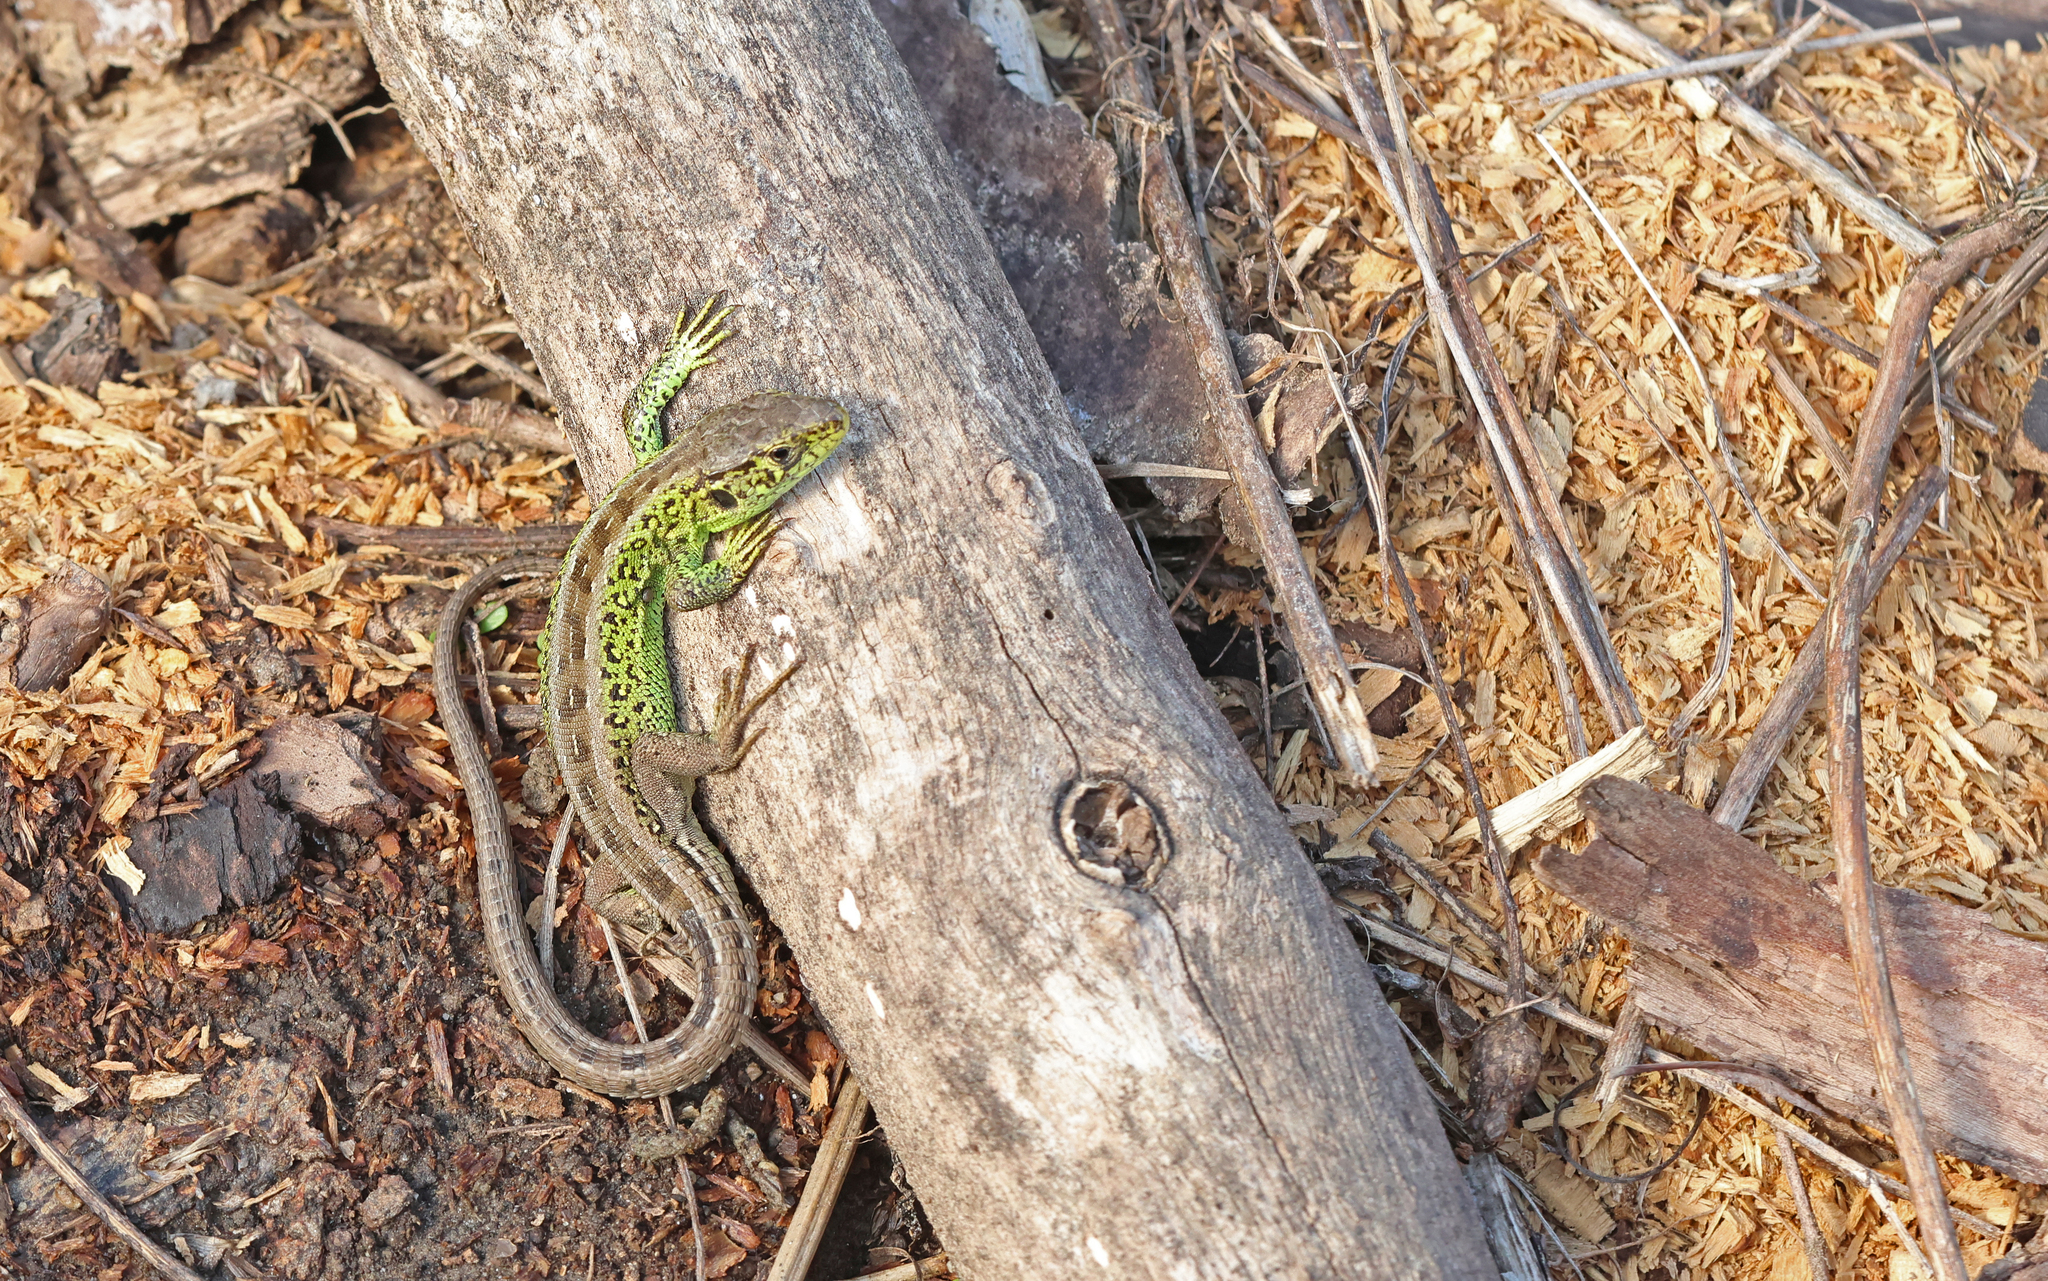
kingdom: Animalia
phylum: Chordata
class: Squamata
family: Lacertidae
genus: Lacerta
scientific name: Lacerta agilis
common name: Sand lizard
